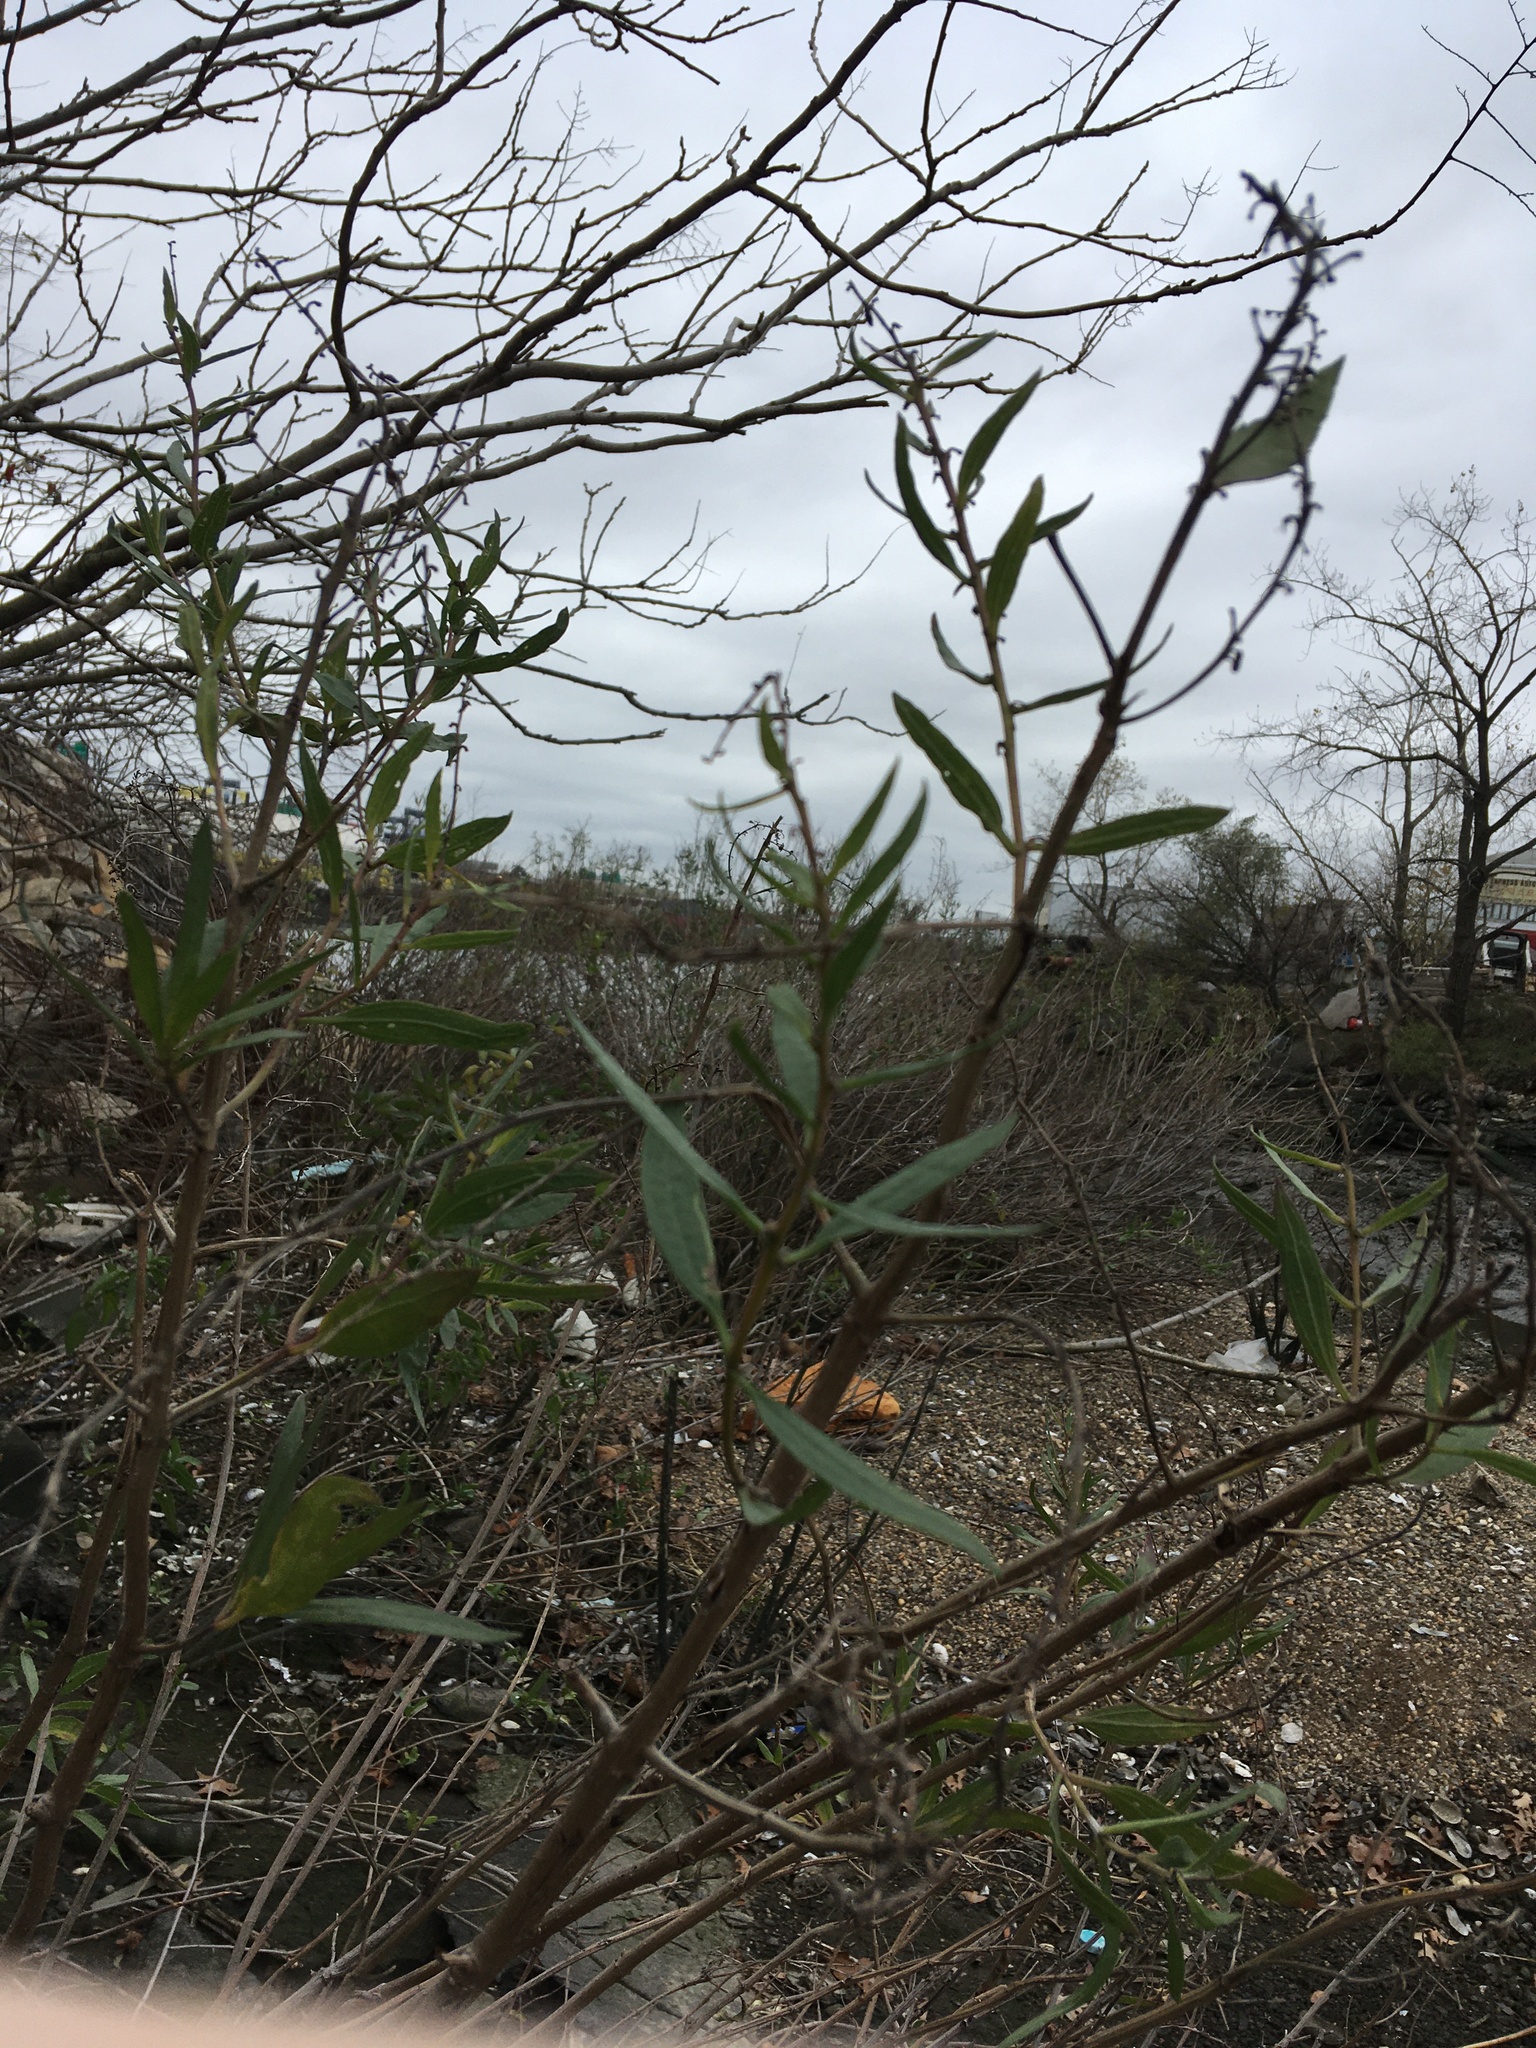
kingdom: Plantae
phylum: Tracheophyta
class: Magnoliopsida
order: Asterales
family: Asteraceae
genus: Iva
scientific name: Iva frutescens
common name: Big-leaved marsh-elder
